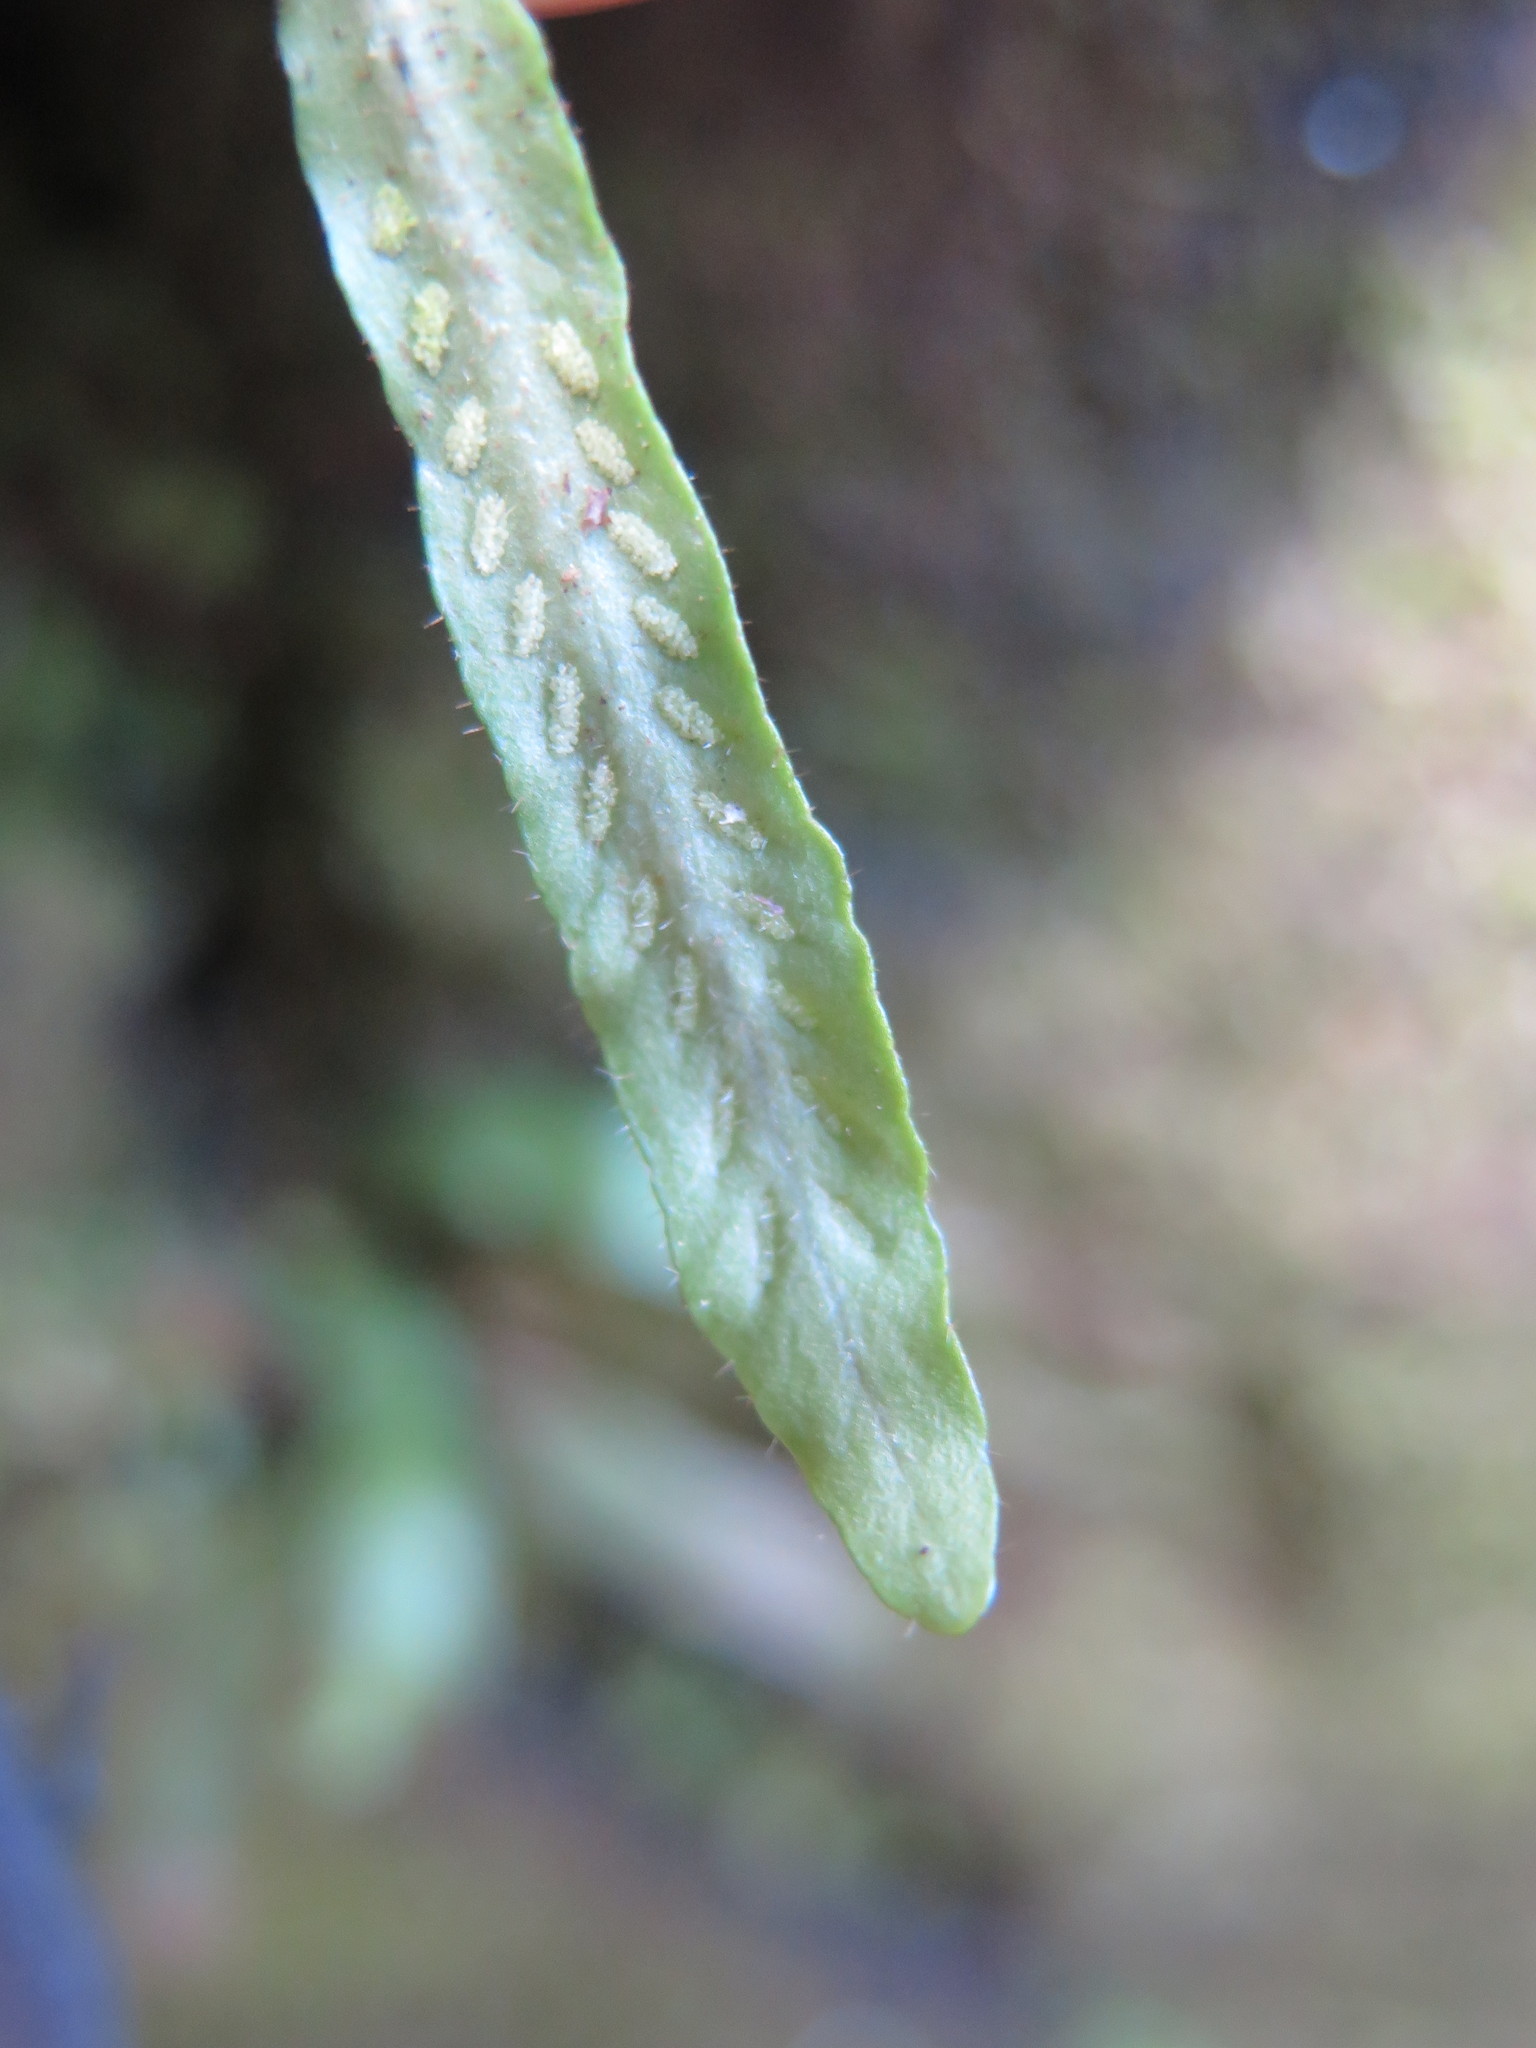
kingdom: Plantae
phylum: Tracheophyta
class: Polypodiopsida
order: Polypodiales
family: Polypodiaceae
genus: Notogrammitis
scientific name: Notogrammitis ciliata
